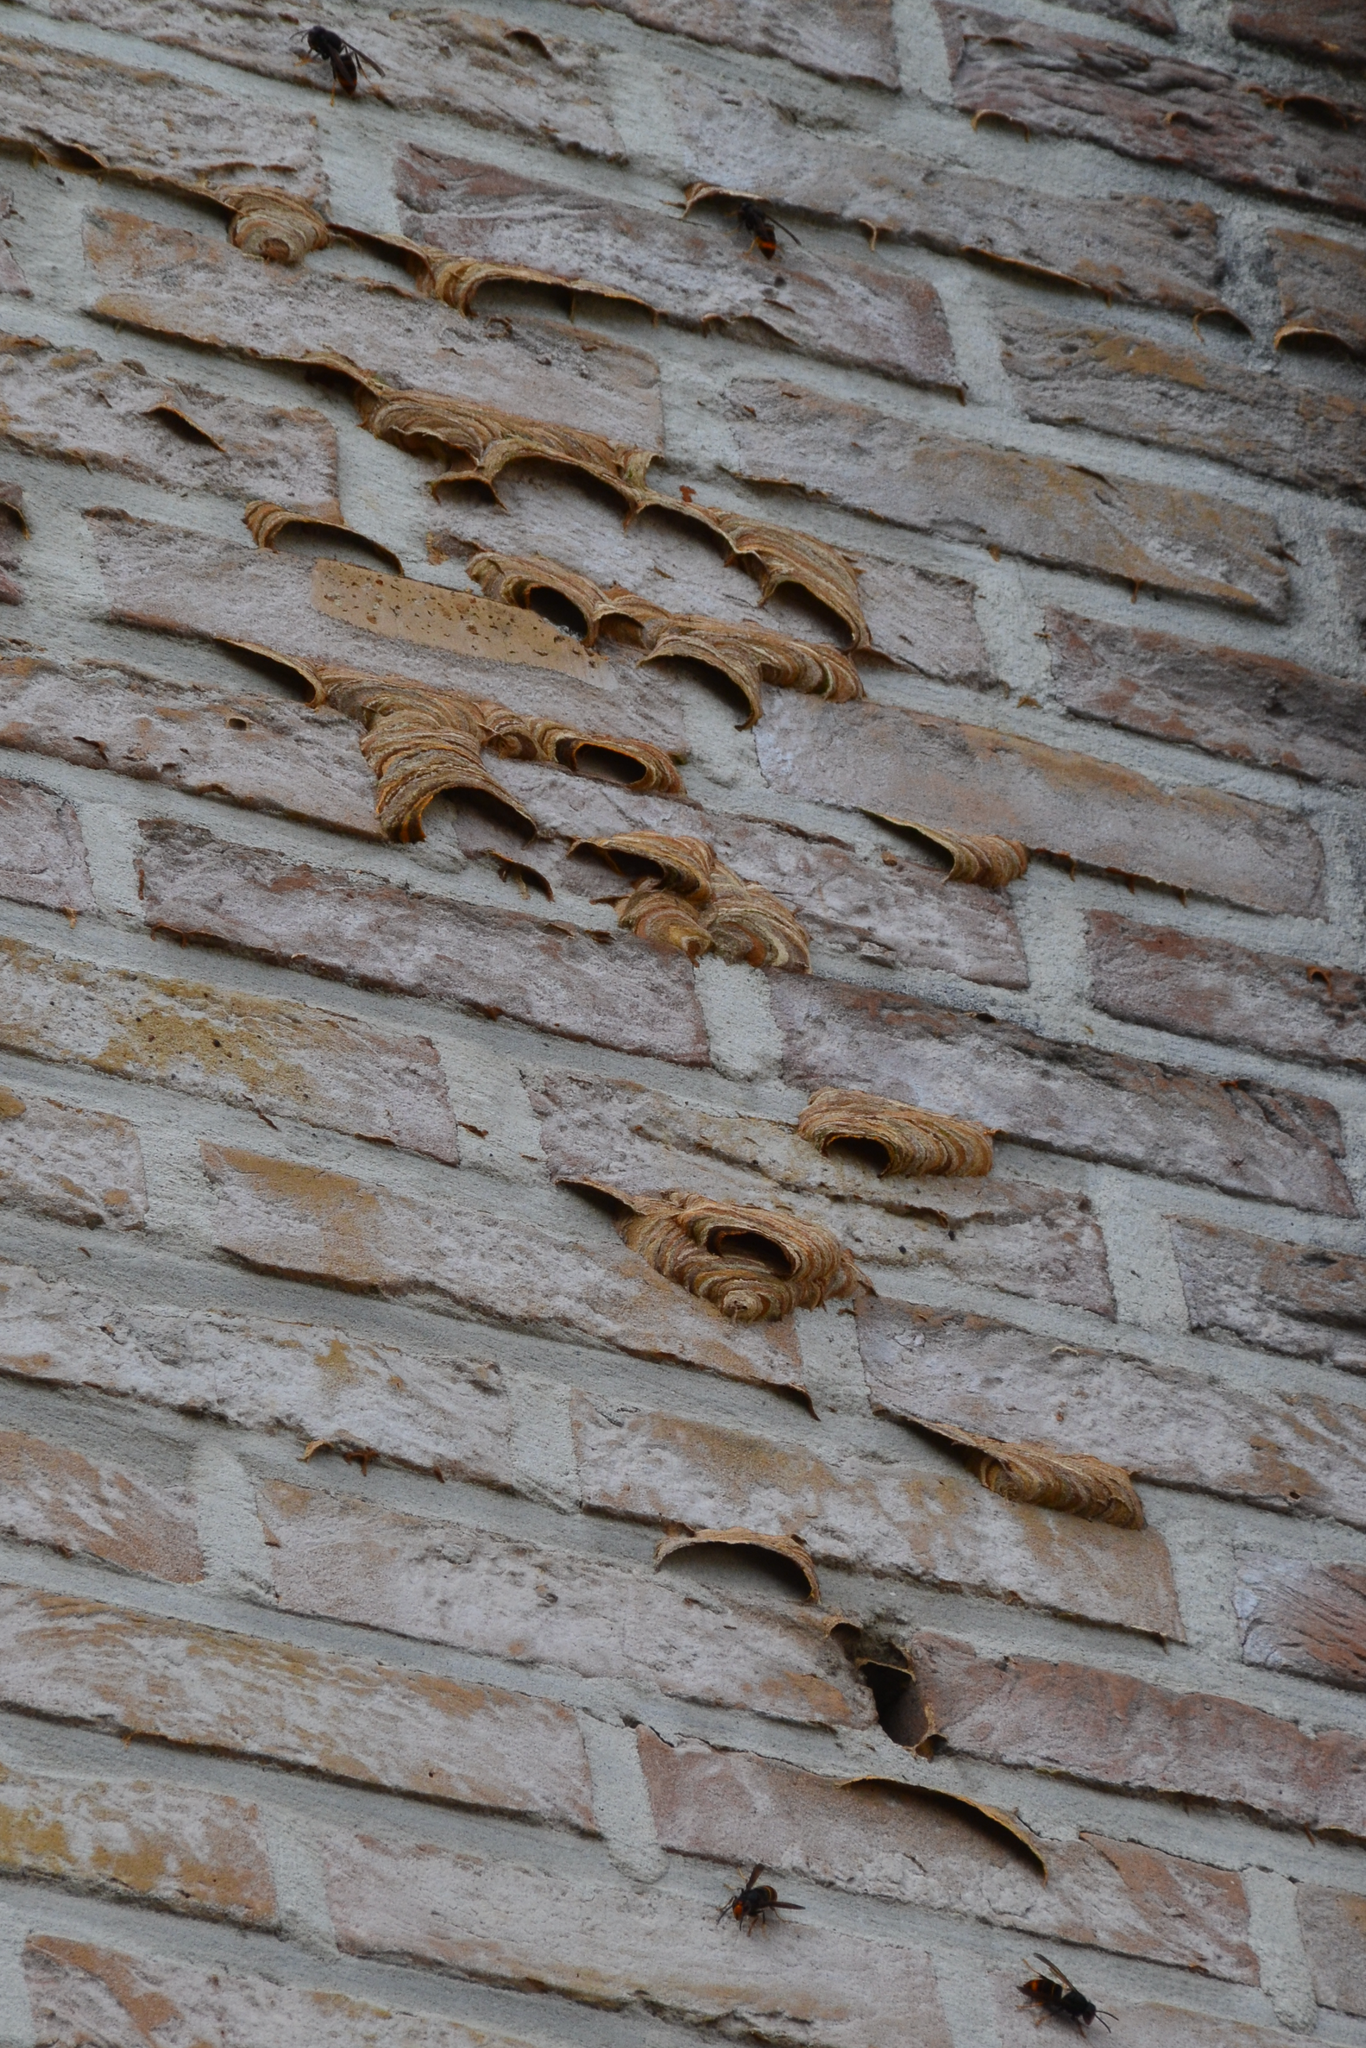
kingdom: Animalia
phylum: Arthropoda
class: Insecta
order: Hymenoptera
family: Vespidae
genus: Vespa
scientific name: Vespa velutina
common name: Asian hornet
